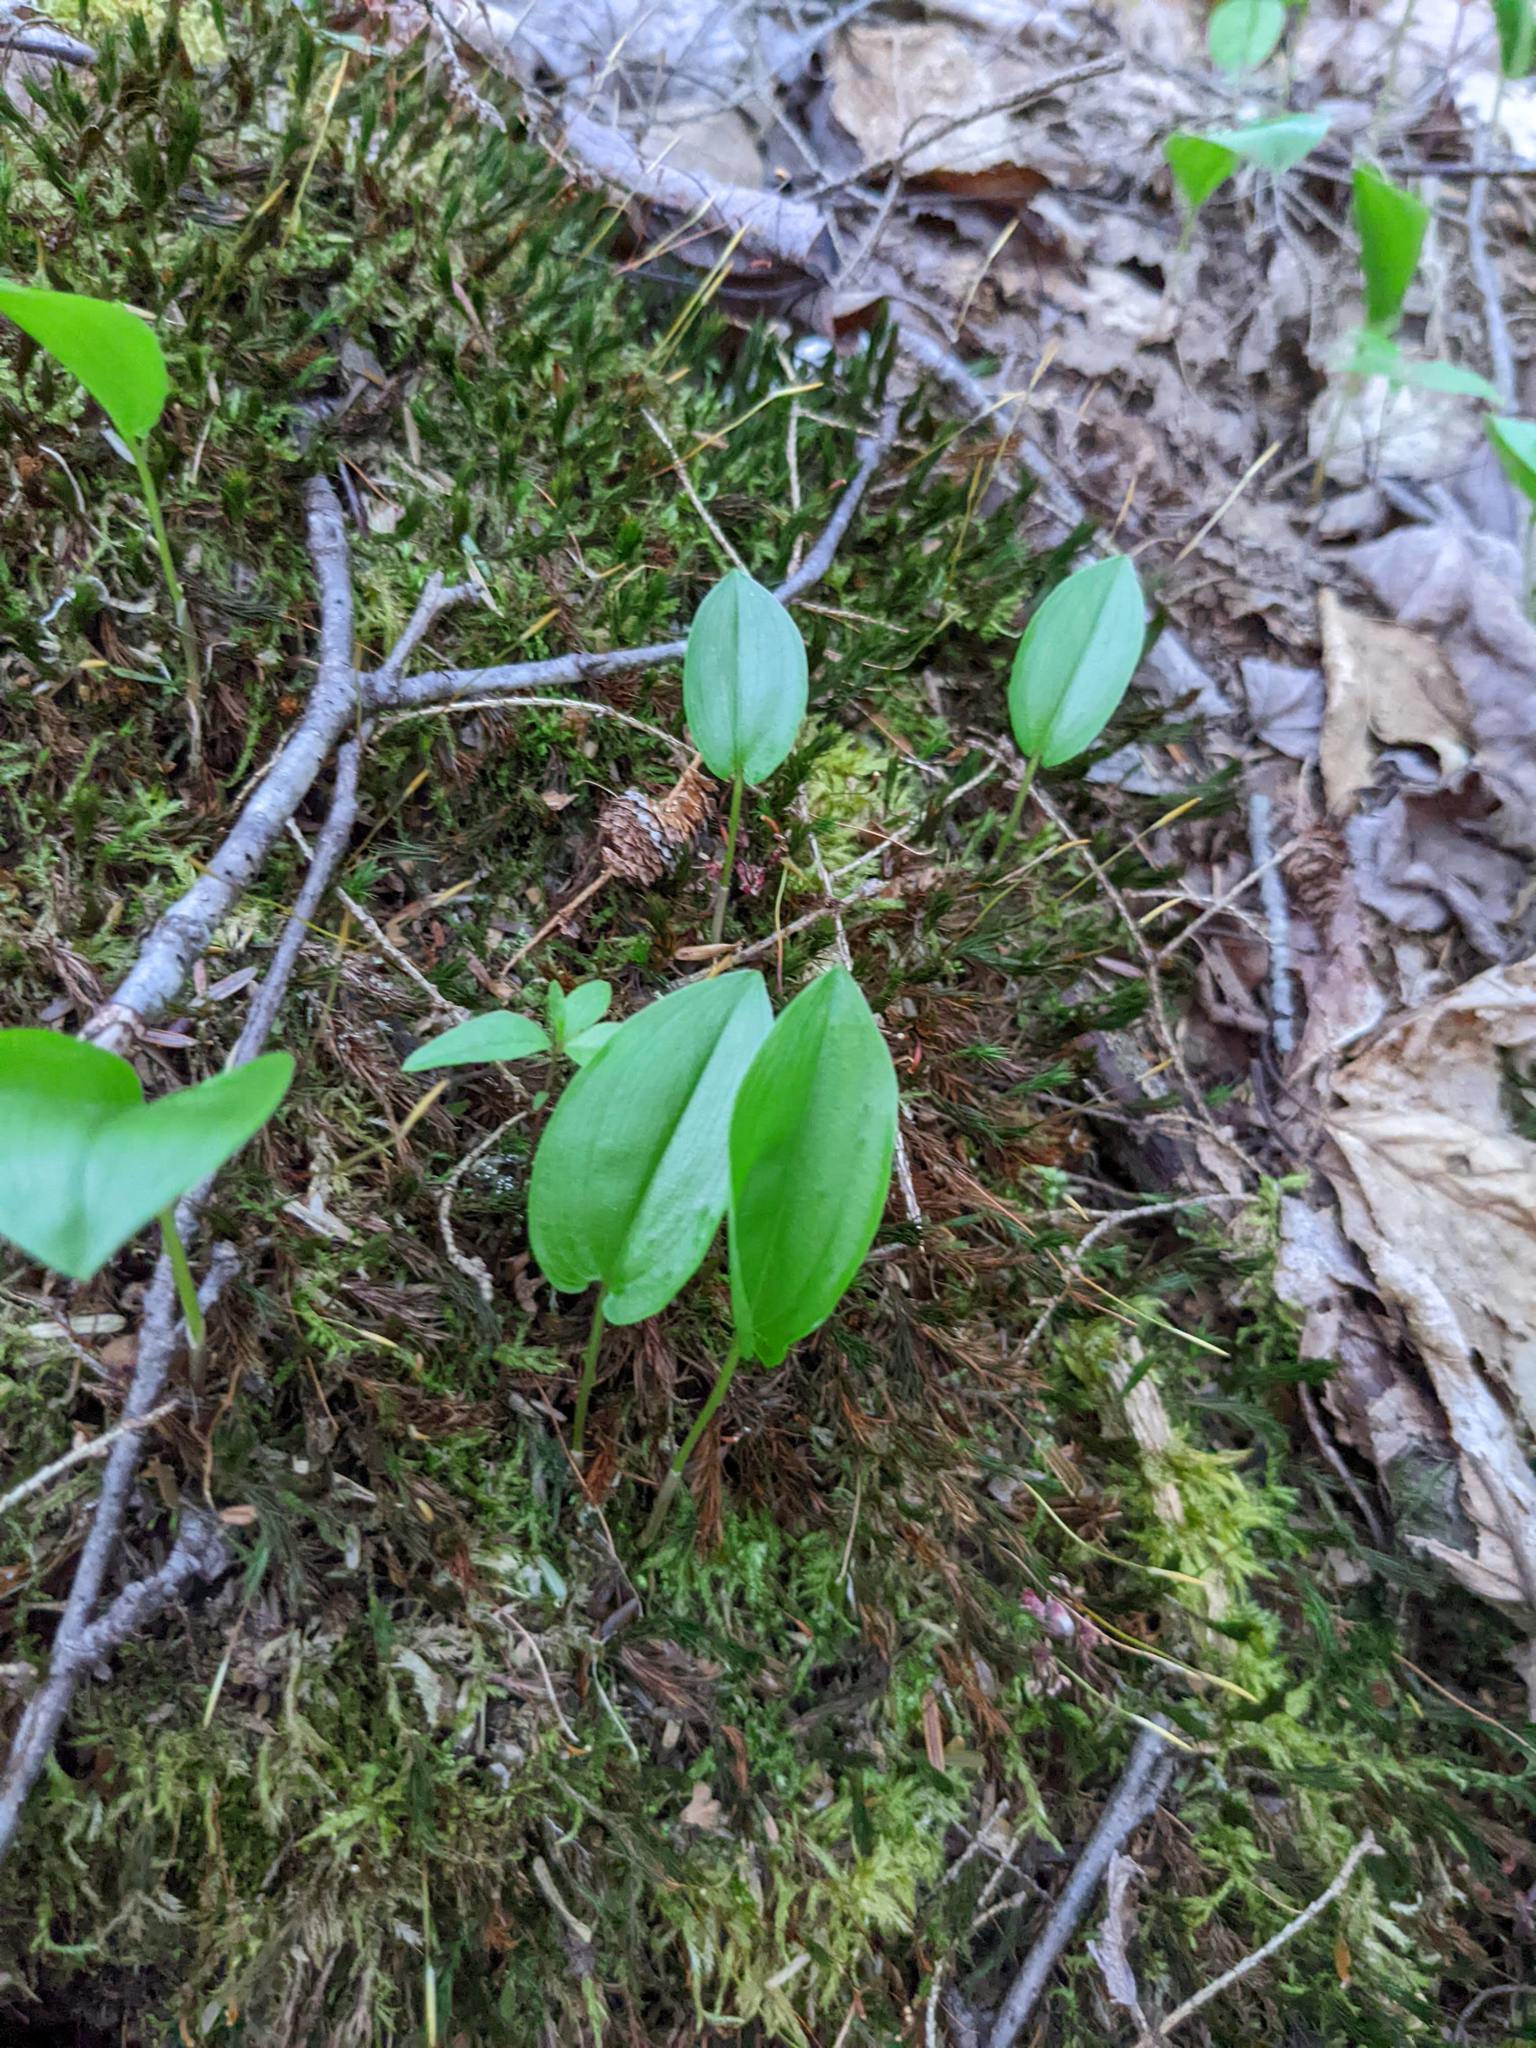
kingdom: Plantae
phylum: Tracheophyta
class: Liliopsida
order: Asparagales
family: Asparagaceae
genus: Maianthemum
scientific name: Maianthemum canadense
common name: False lily-of-the-valley
